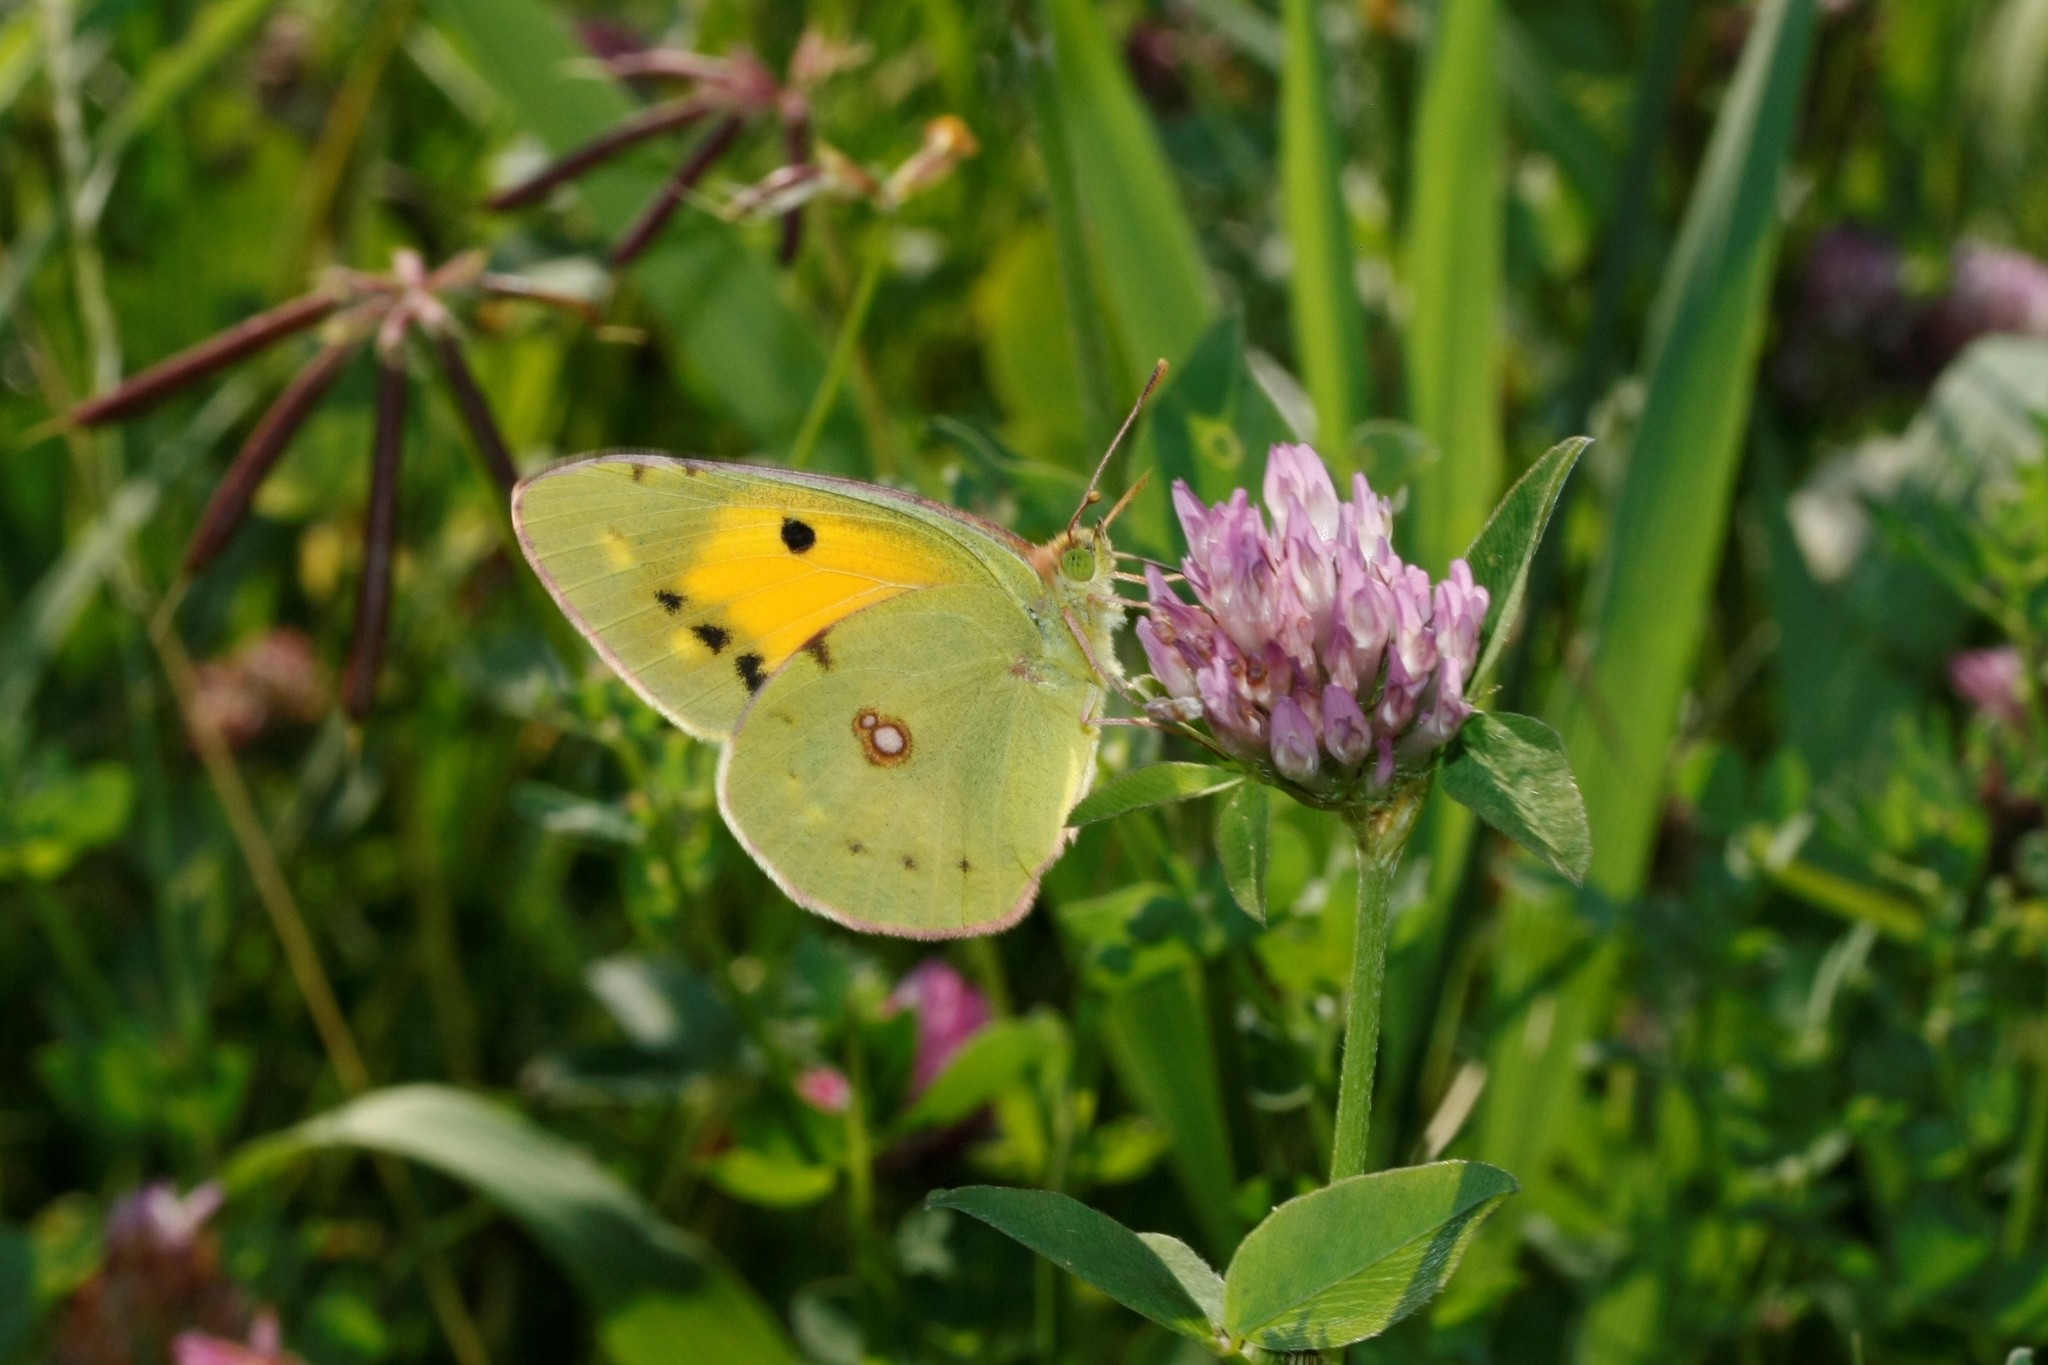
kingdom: Animalia
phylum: Arthropoda
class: Insecta
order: Lepidoptera
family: Pieridae
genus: Colias
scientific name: Colias croceus
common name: Clouded yellow
